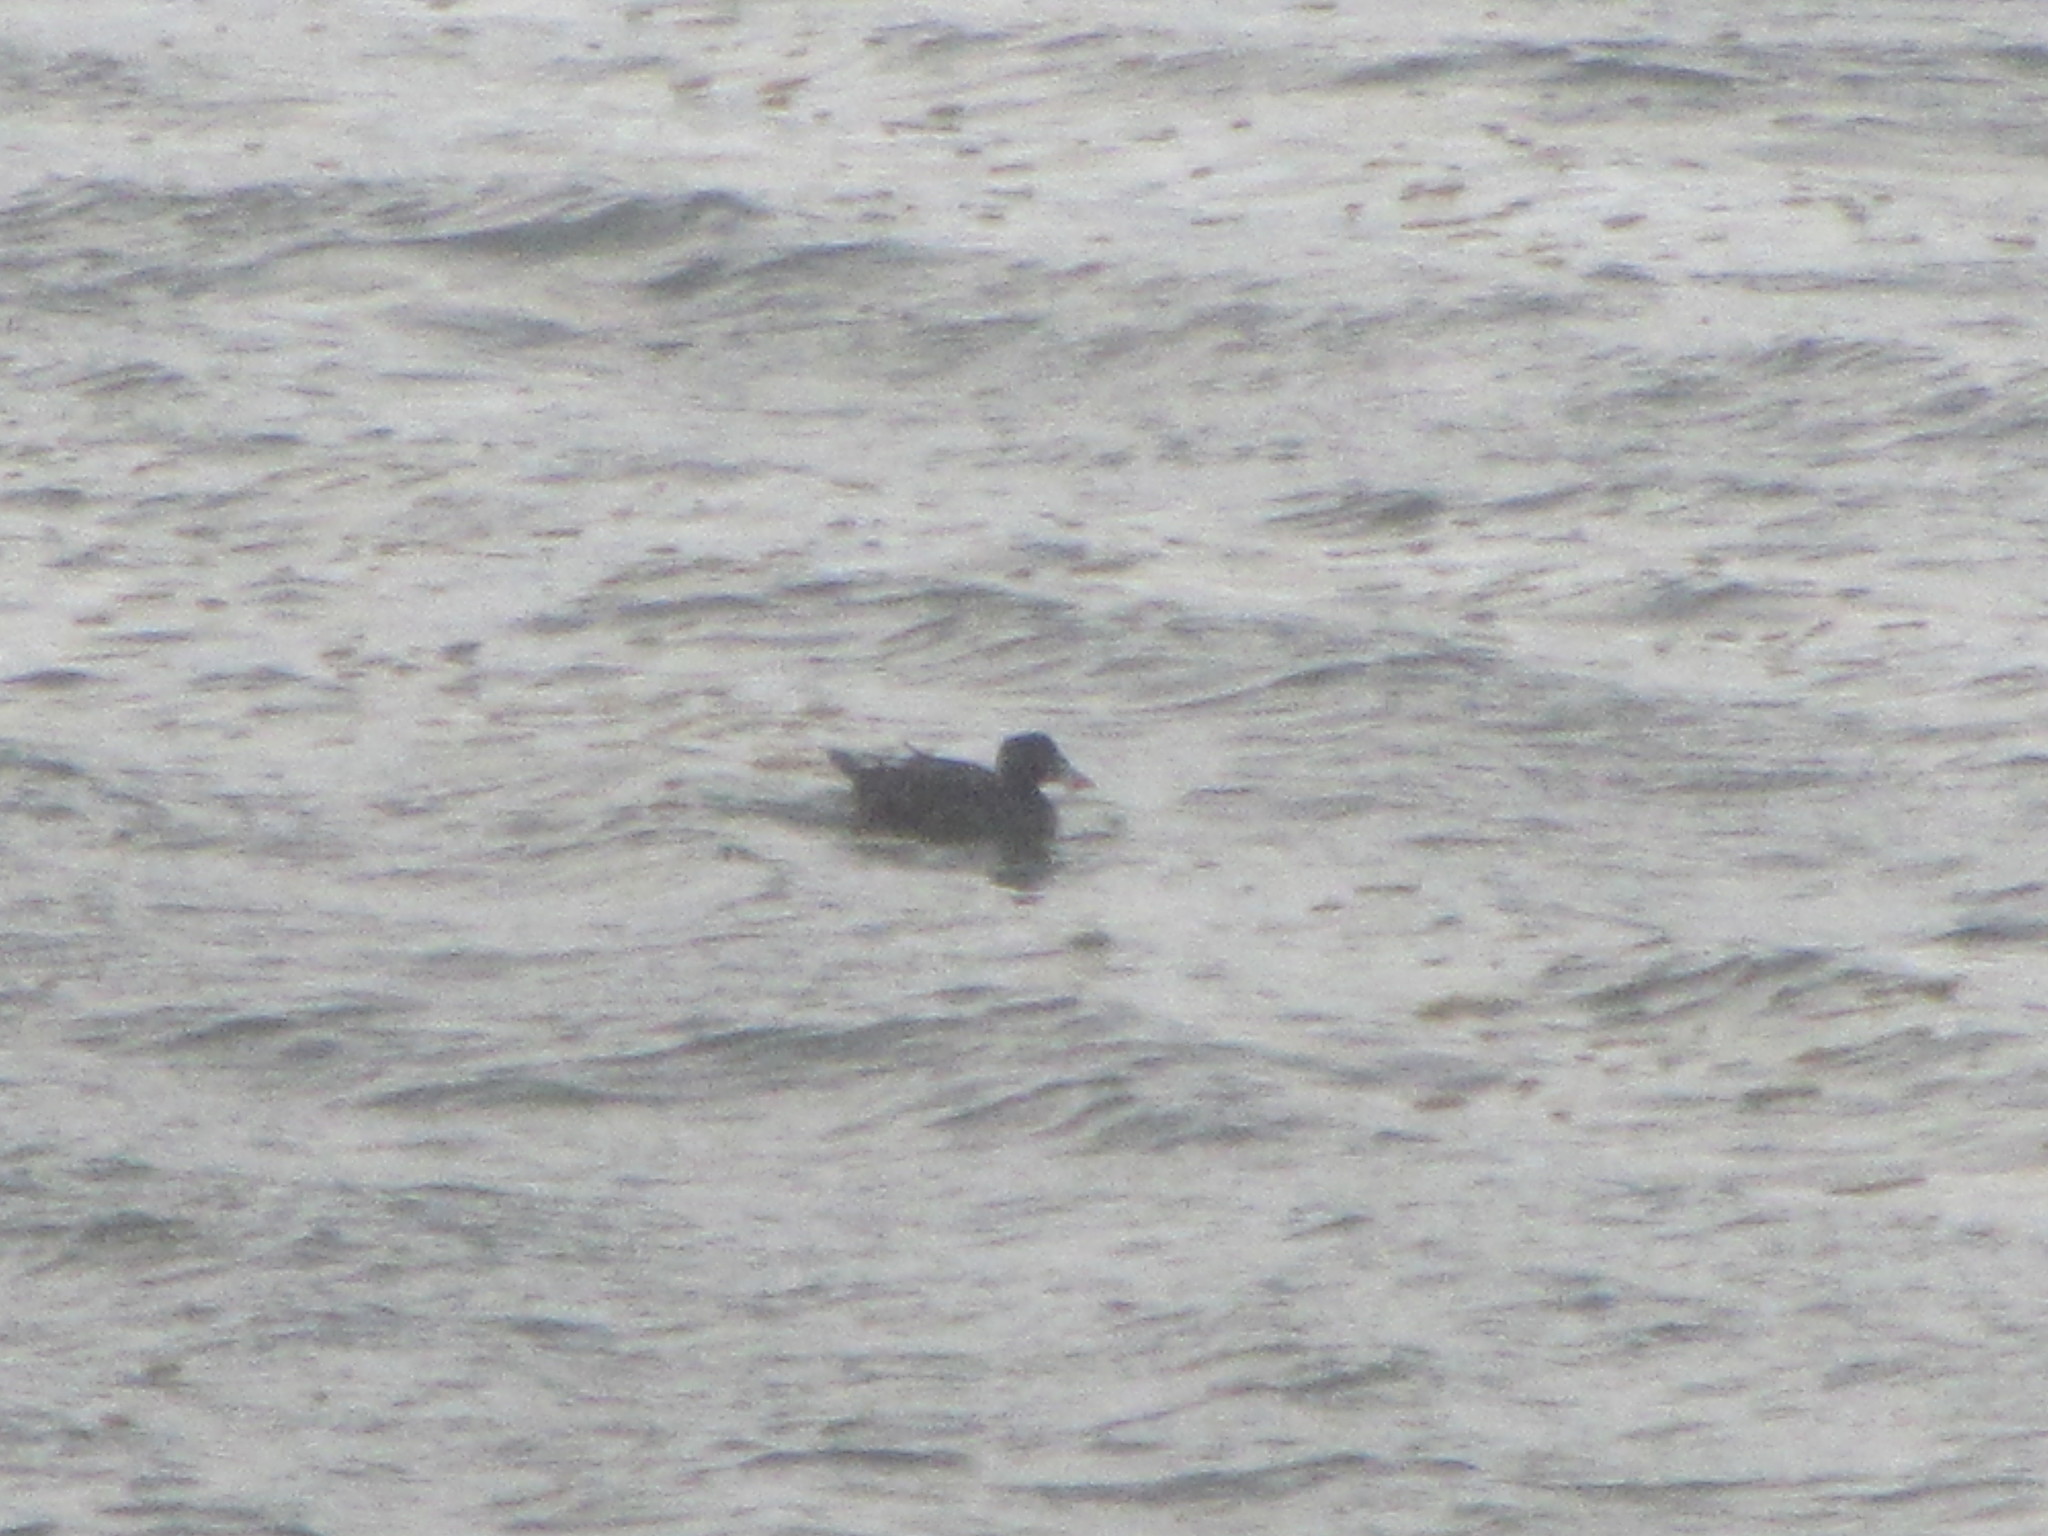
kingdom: Animalia
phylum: Chordata
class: Aves
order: Anseriformes
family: Anatidae
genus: Melanitta
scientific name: Melanitta perspicillata
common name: Surf scoter
